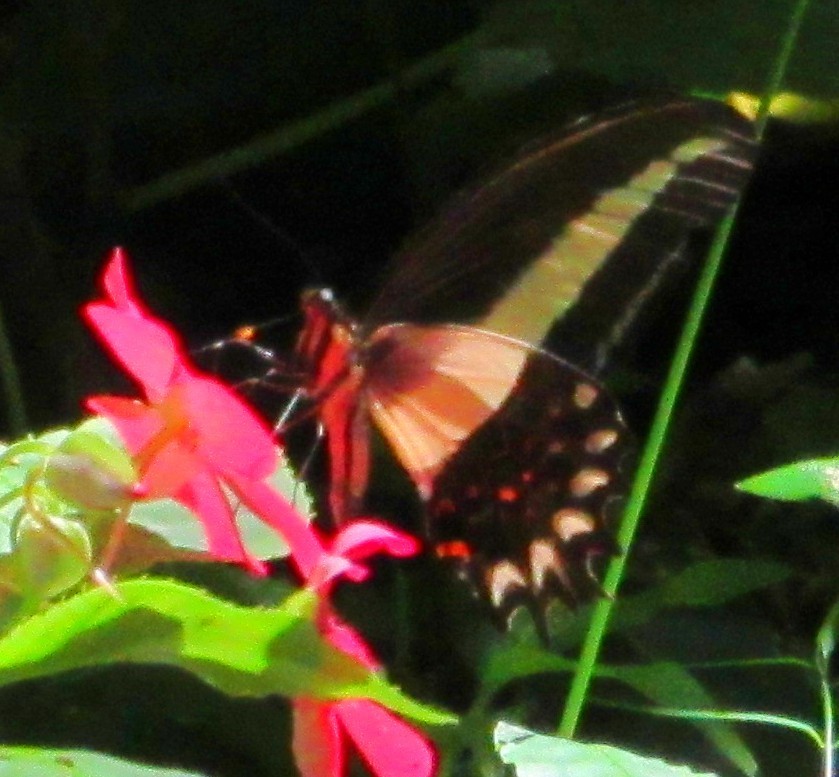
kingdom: Animalia
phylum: Arthropoda
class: Insecta
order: Lepidoptera
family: Papilionidae
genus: Heraclides
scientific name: Heraclides hectorides
